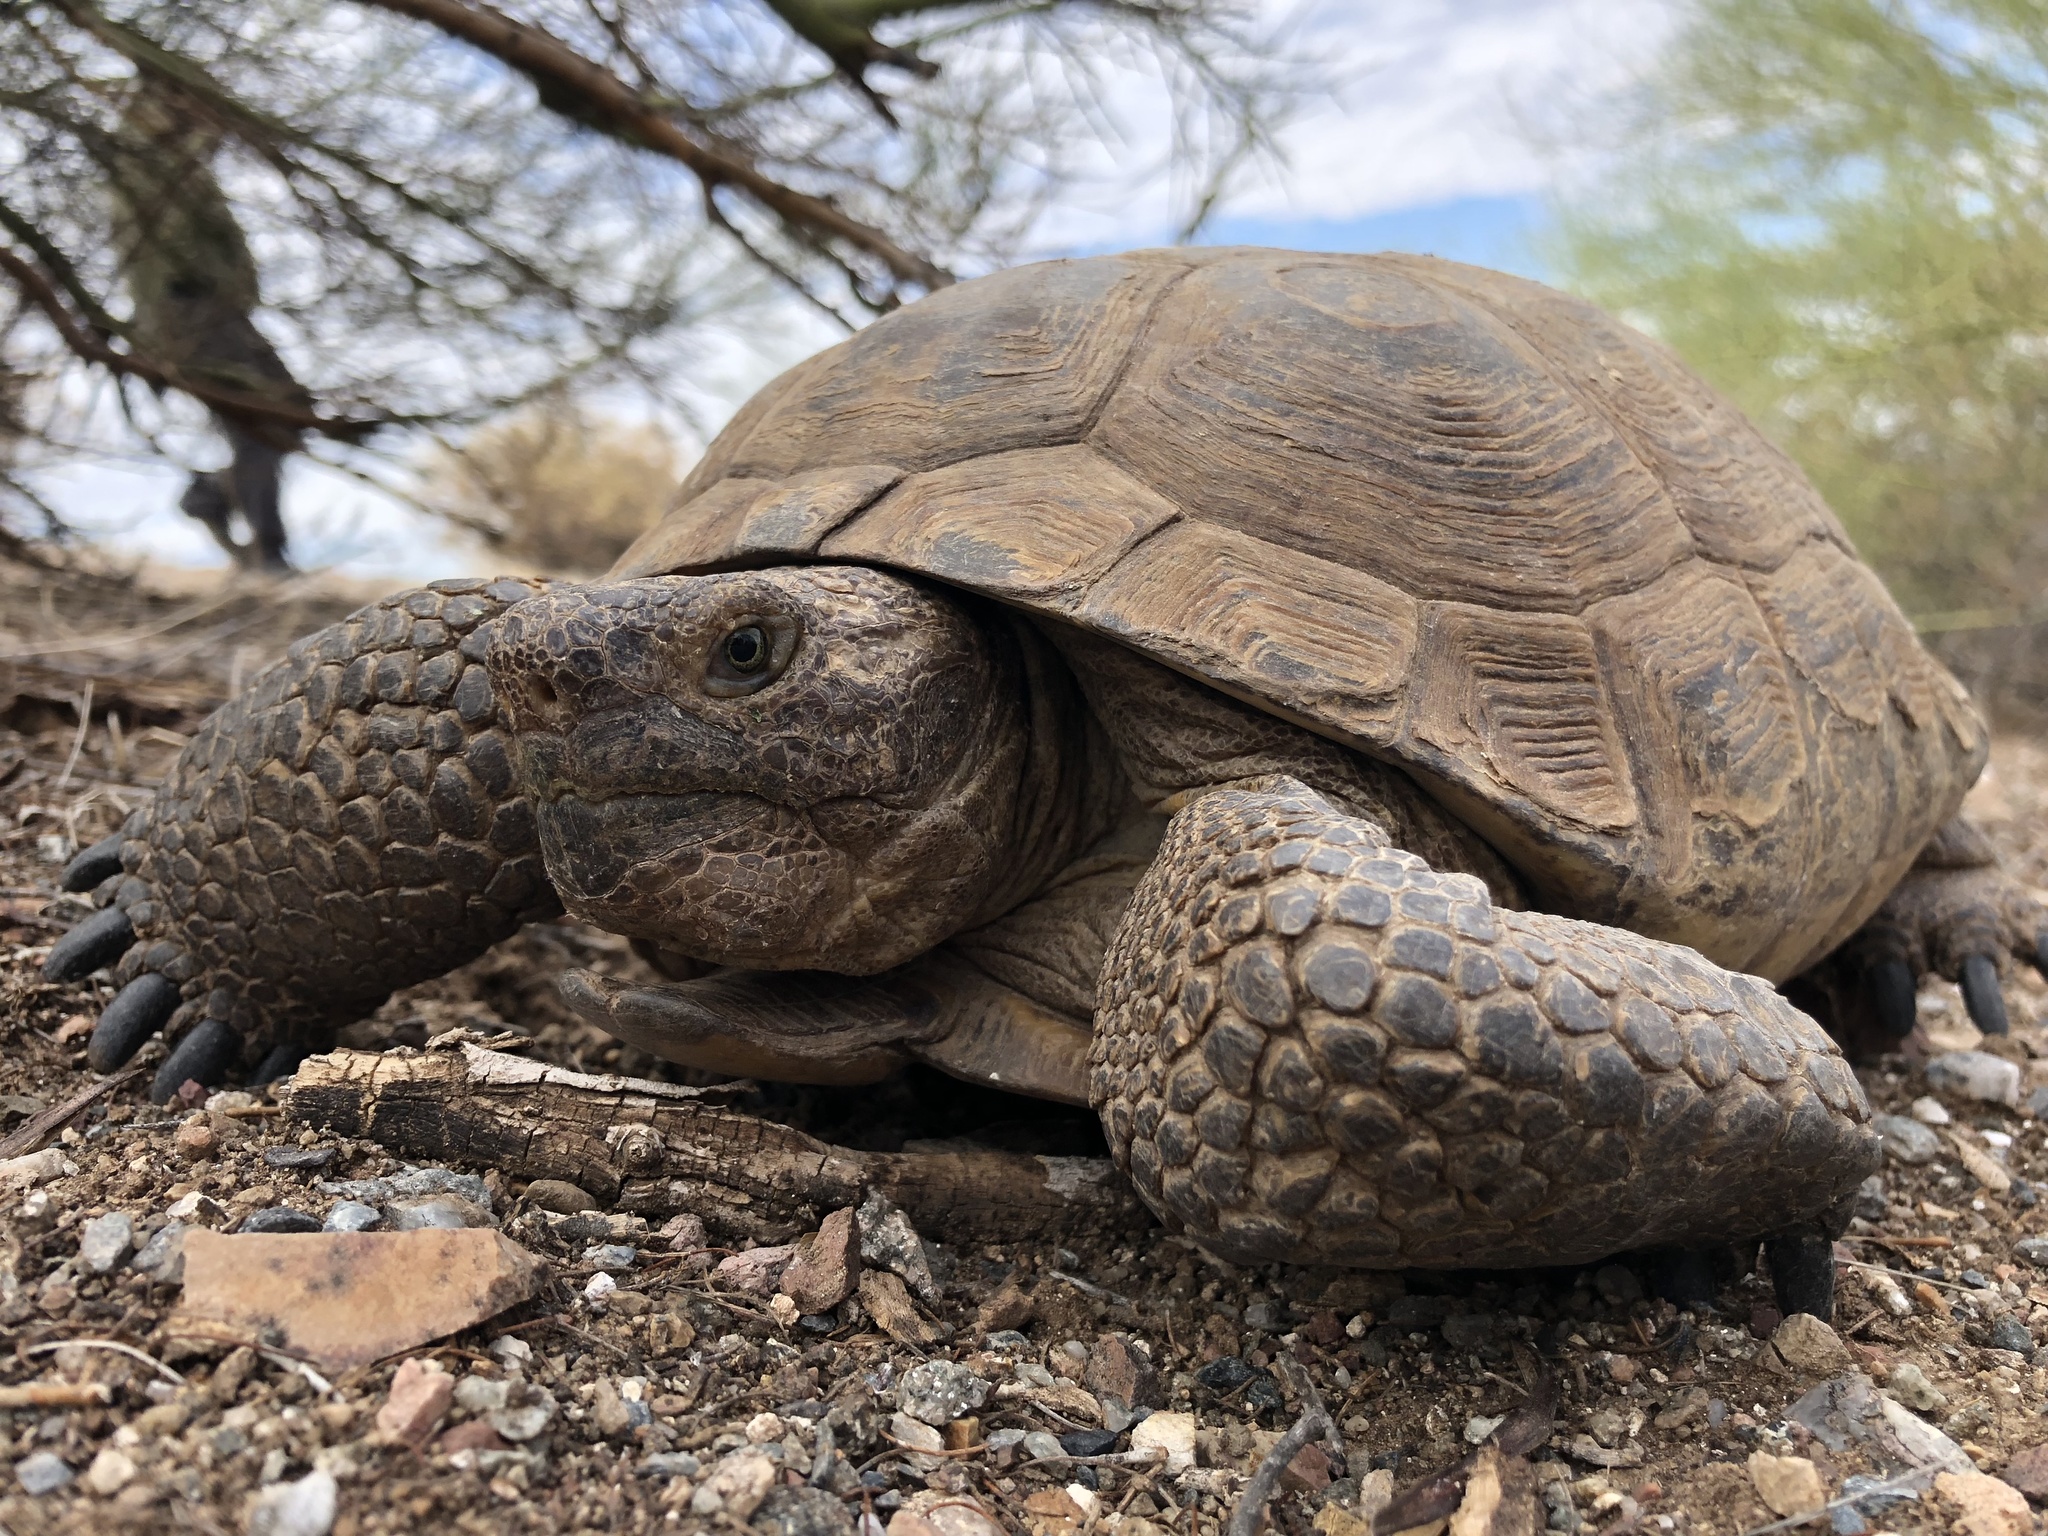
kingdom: Animalia
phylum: Chordata
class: Testudines
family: Testudinidae
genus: Gopherus
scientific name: Gopherus morafkai
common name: Sonoran desert tortoise
